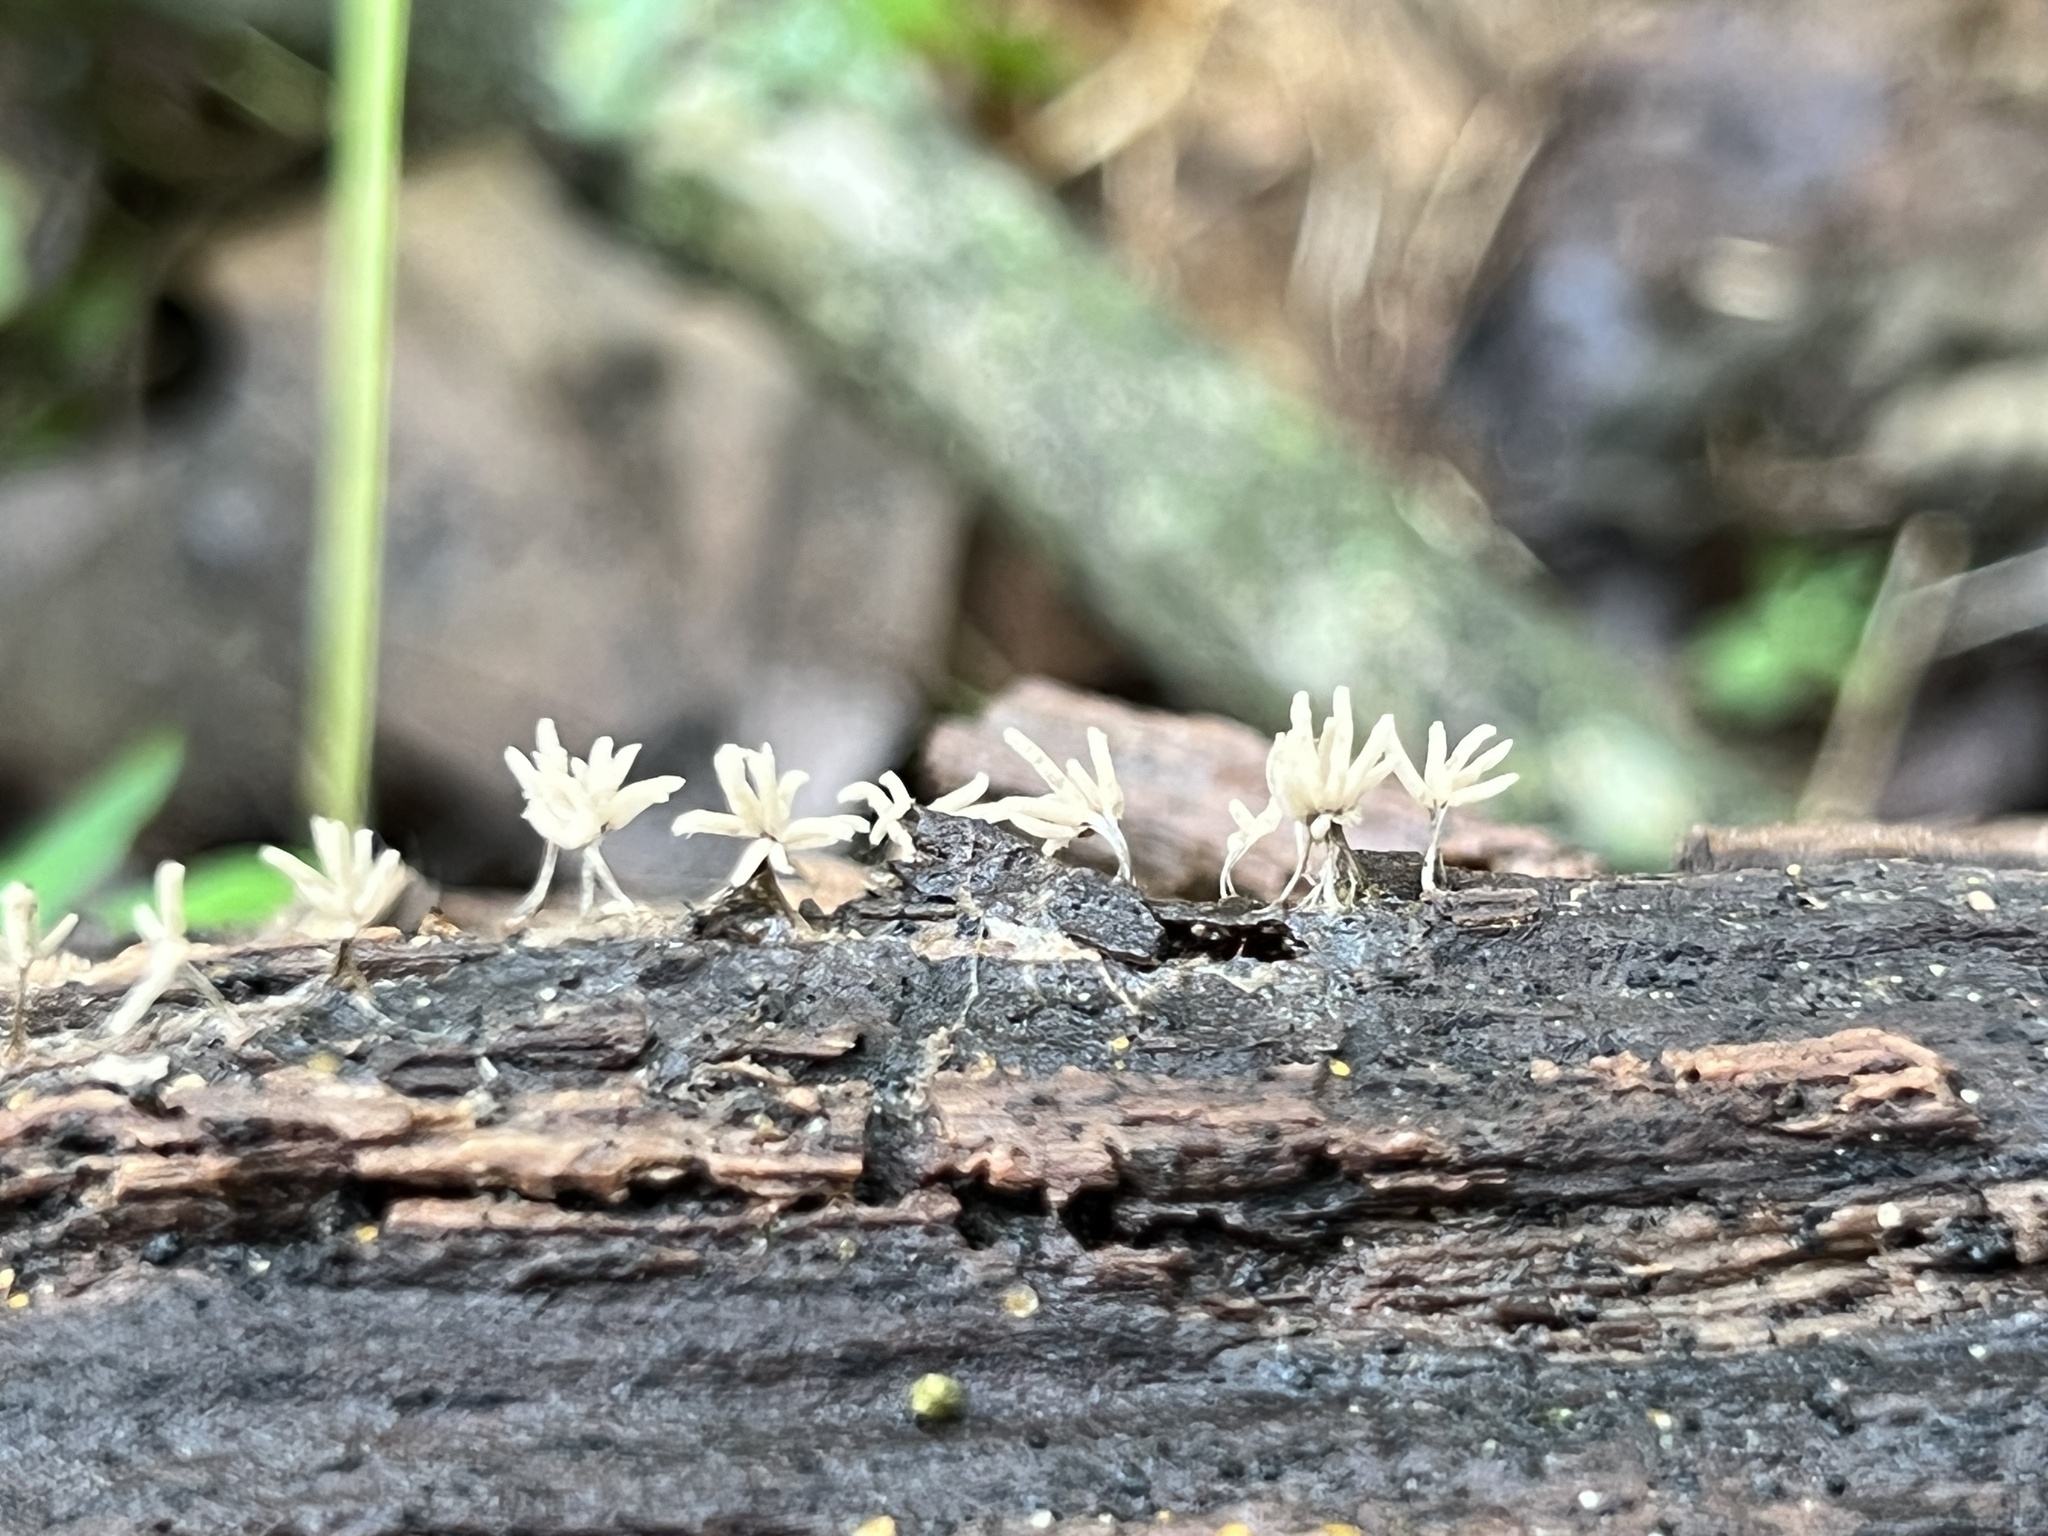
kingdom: Protozoa
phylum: Mycetozoa
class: Myxomycetes
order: Trichiales
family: Arcyriaceae
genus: Arcyria
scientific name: Arcyria cinerea
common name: White carnival candy slime mold
